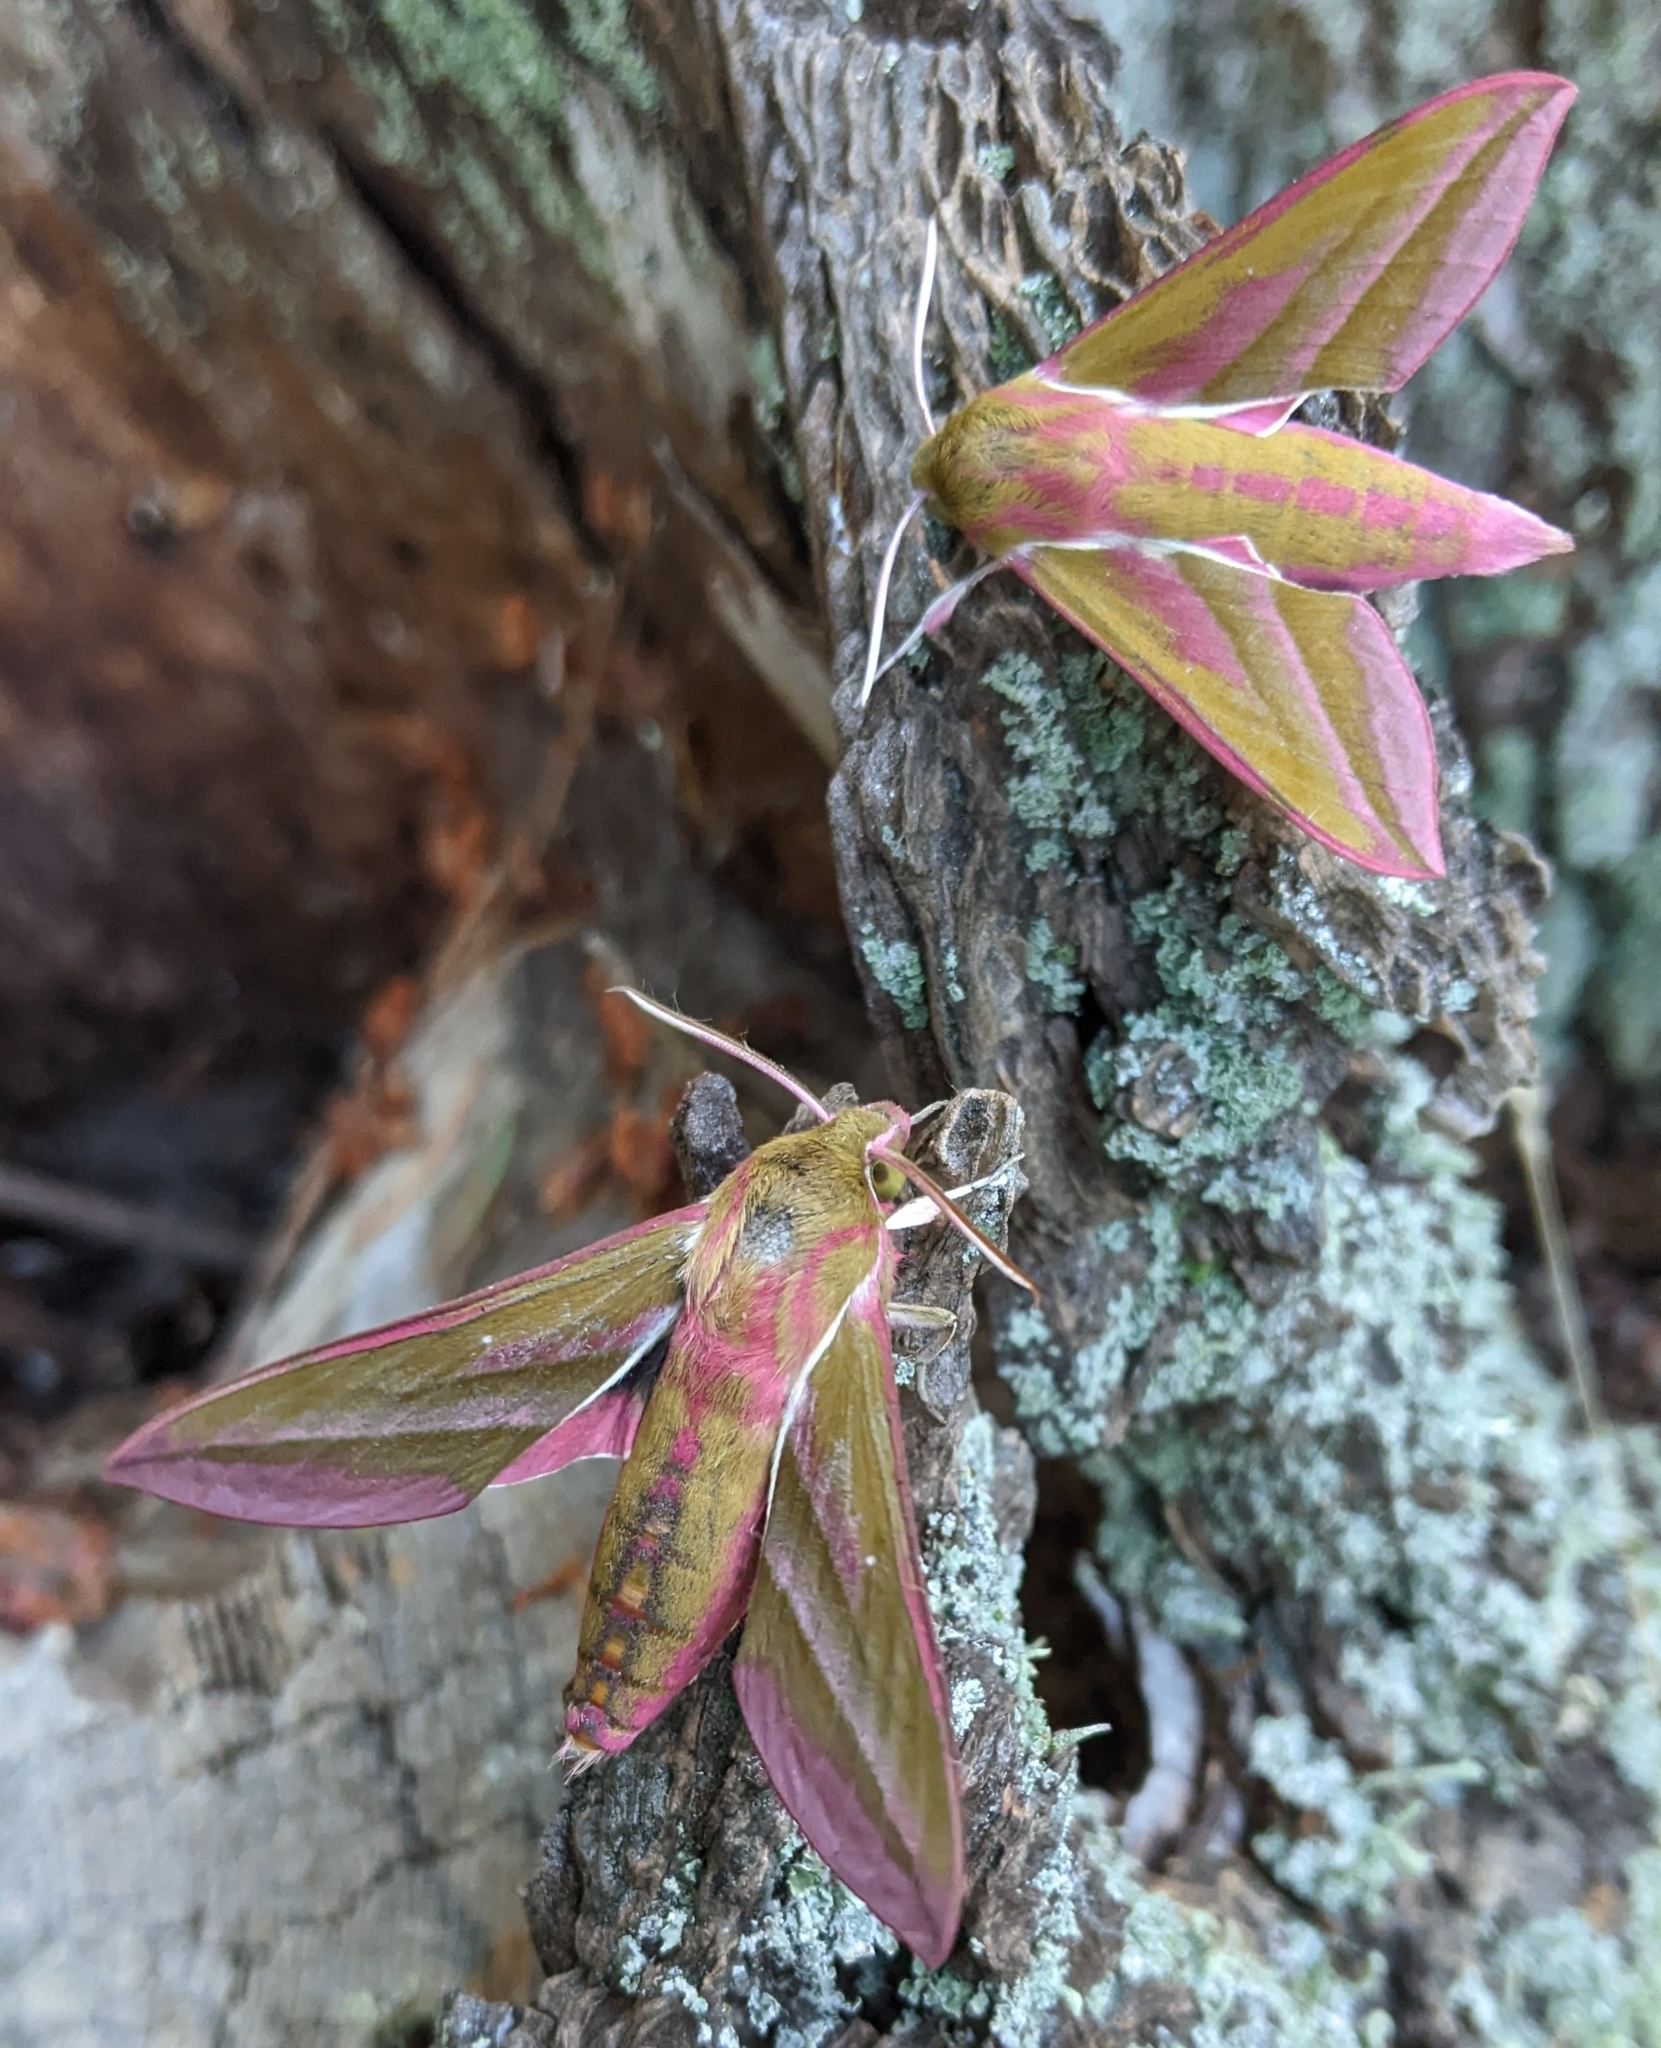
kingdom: Animalia
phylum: Arthropoda
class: Insecta
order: Lepidoptera
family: Sphingidae
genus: Deilephila
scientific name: Deilephila elpenor
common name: Elephant hawk-moth
